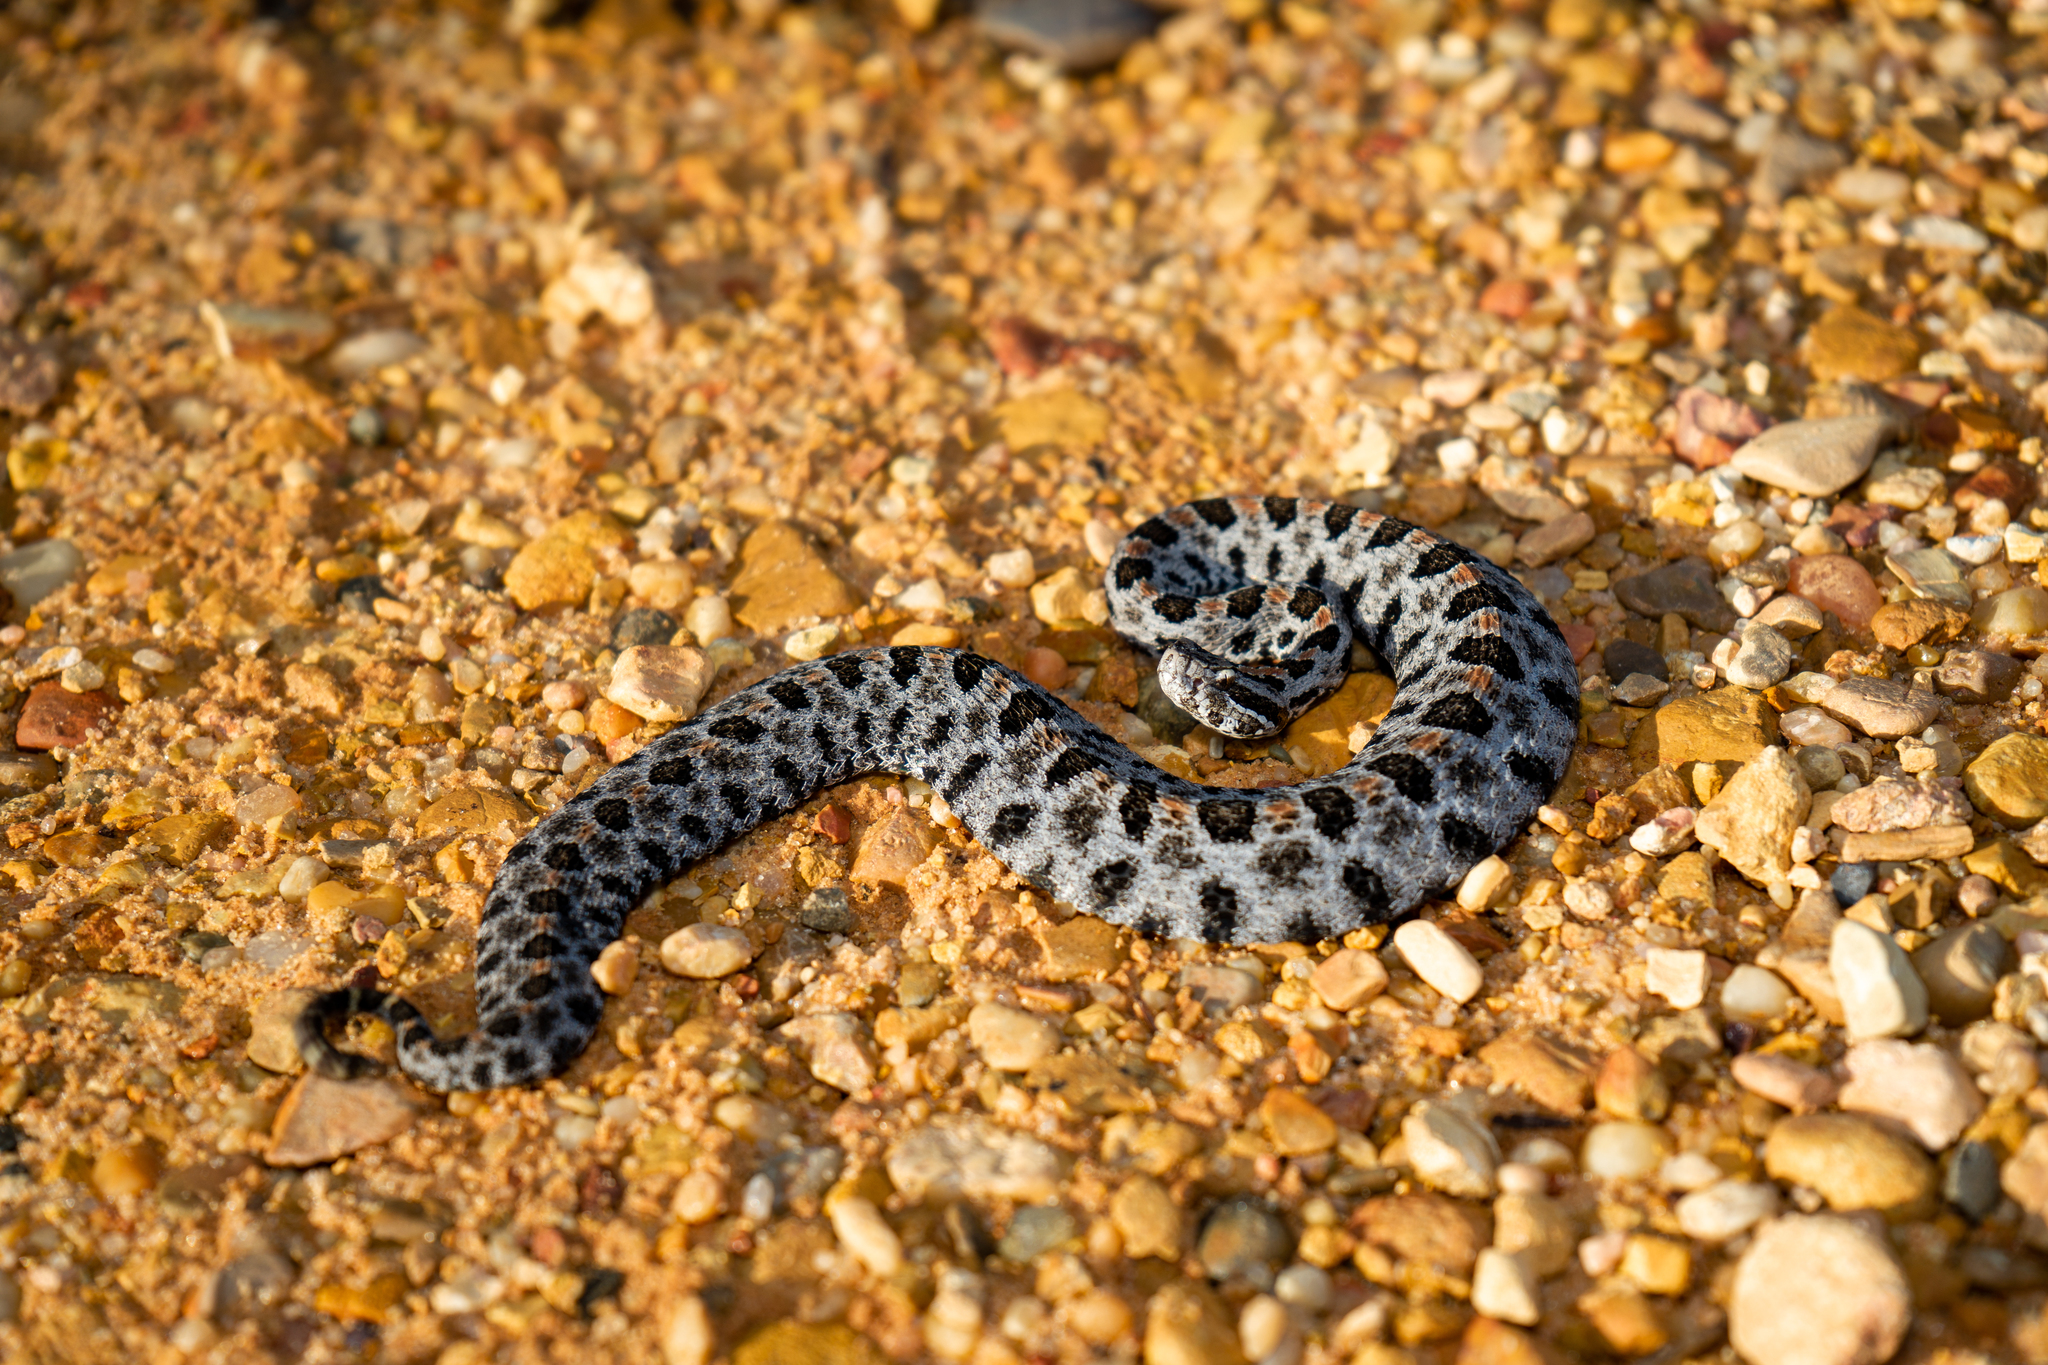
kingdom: Animalia
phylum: Chordata
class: Squamata
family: Viperidae
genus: Sistrurus
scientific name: Sistrurus miliarius
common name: Pygmy rattlesnake
